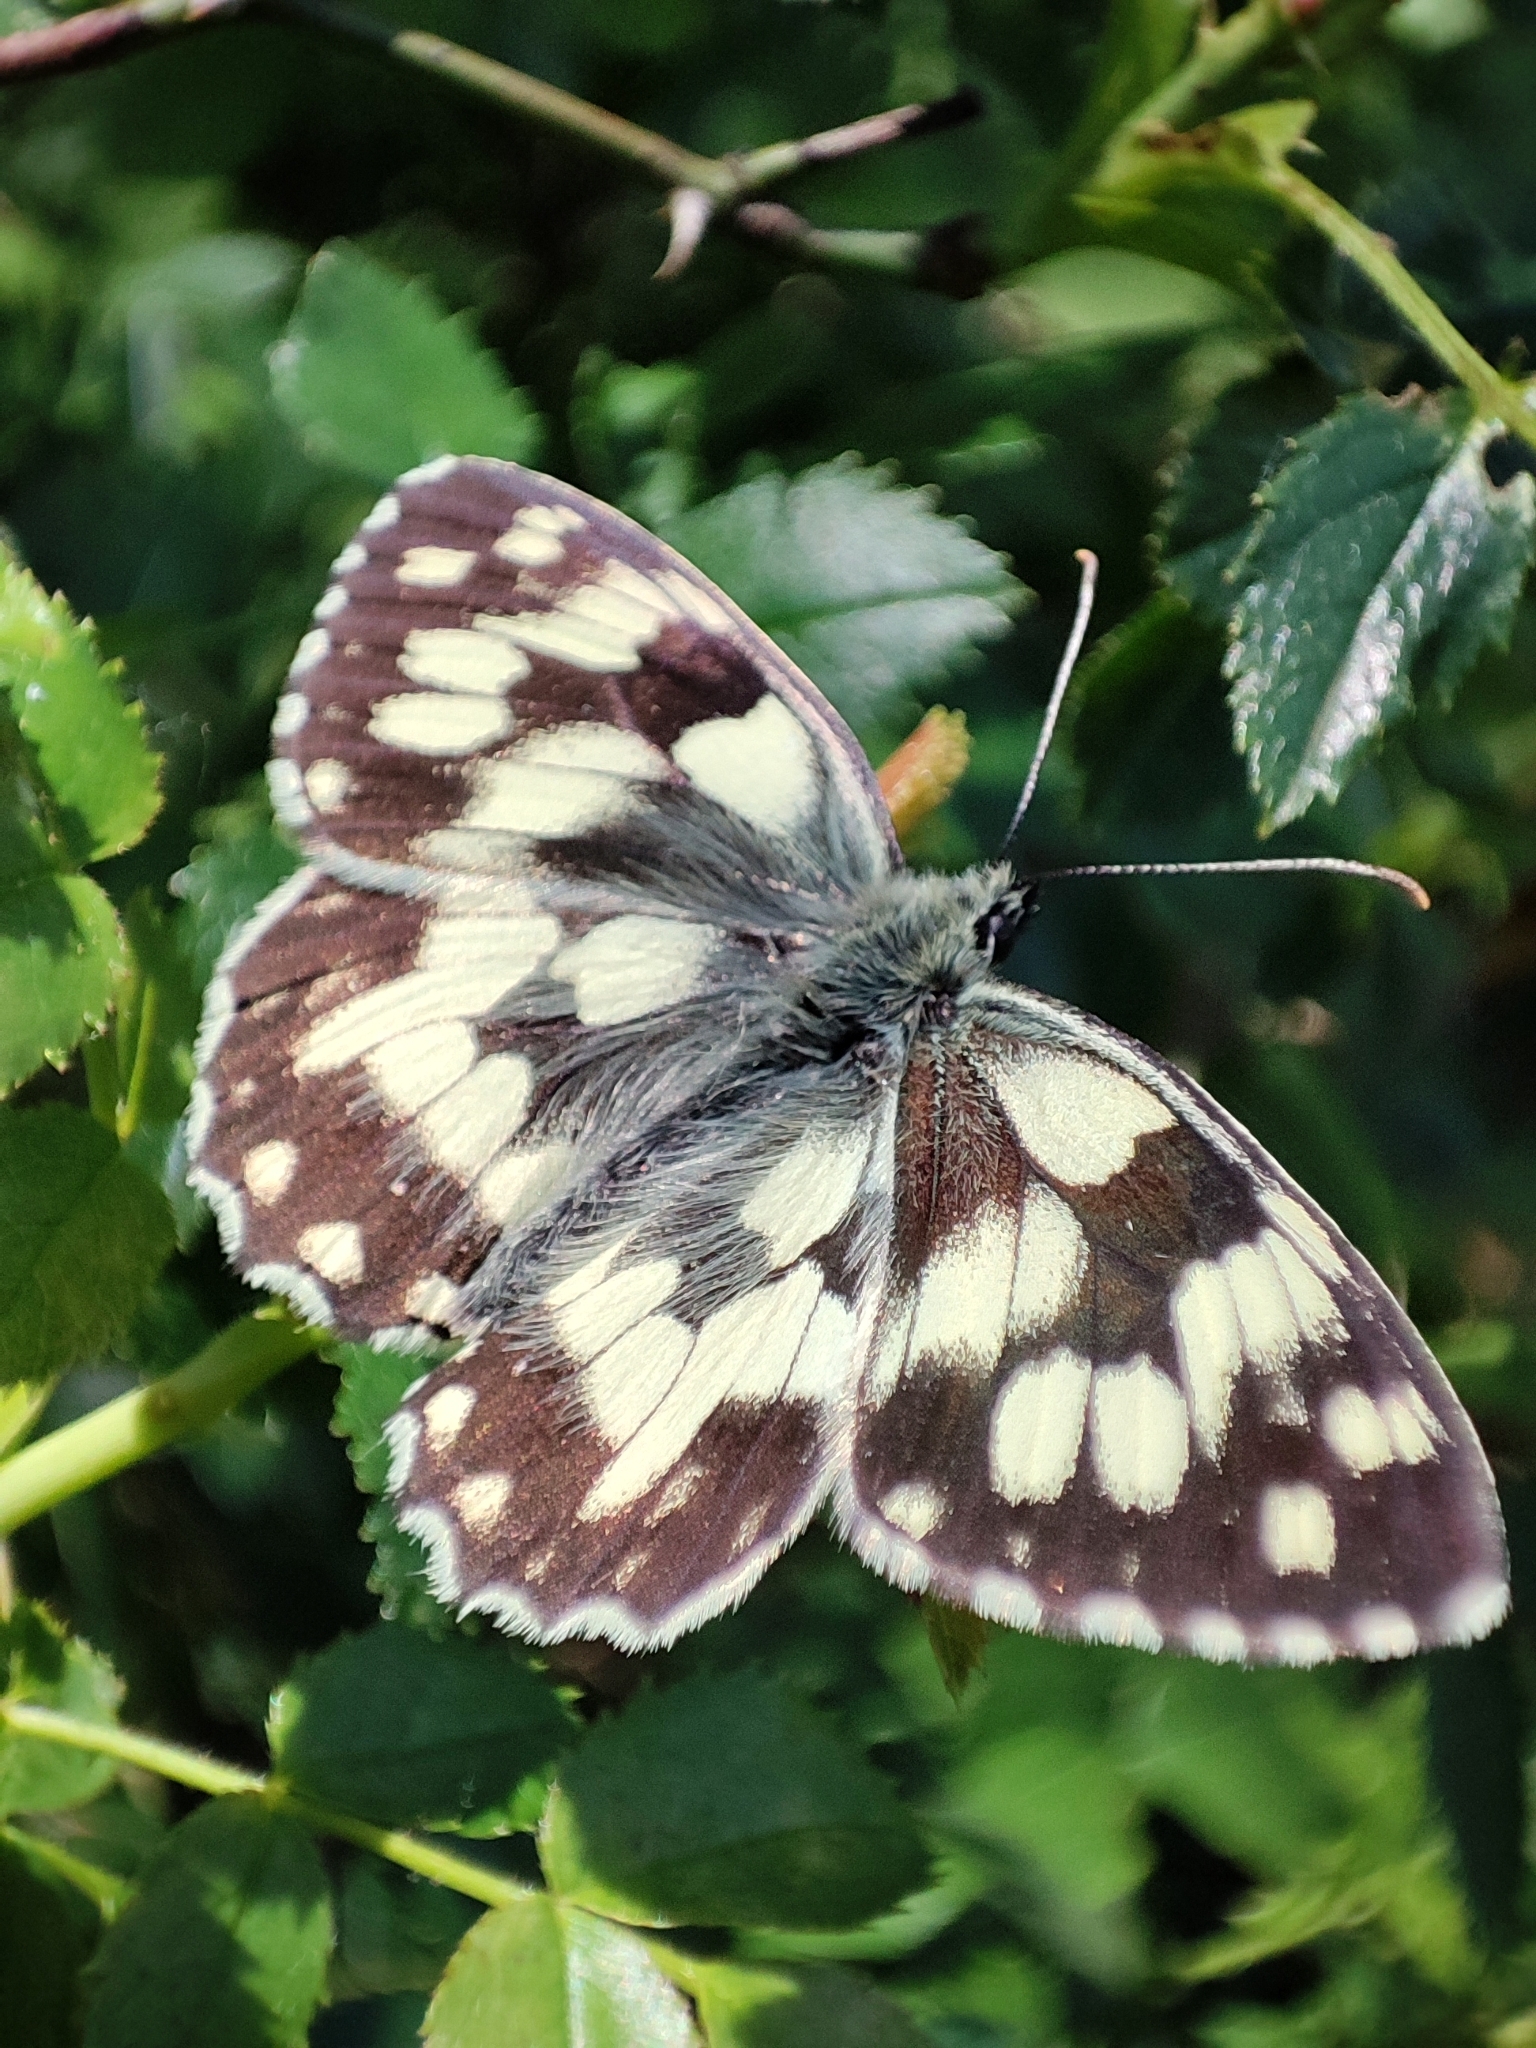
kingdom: Animalia
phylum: Arthropoda
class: Insecta
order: Lepidoptera
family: Nymphalidae
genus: Melanargia
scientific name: Melanargia galathea
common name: Marbled white
